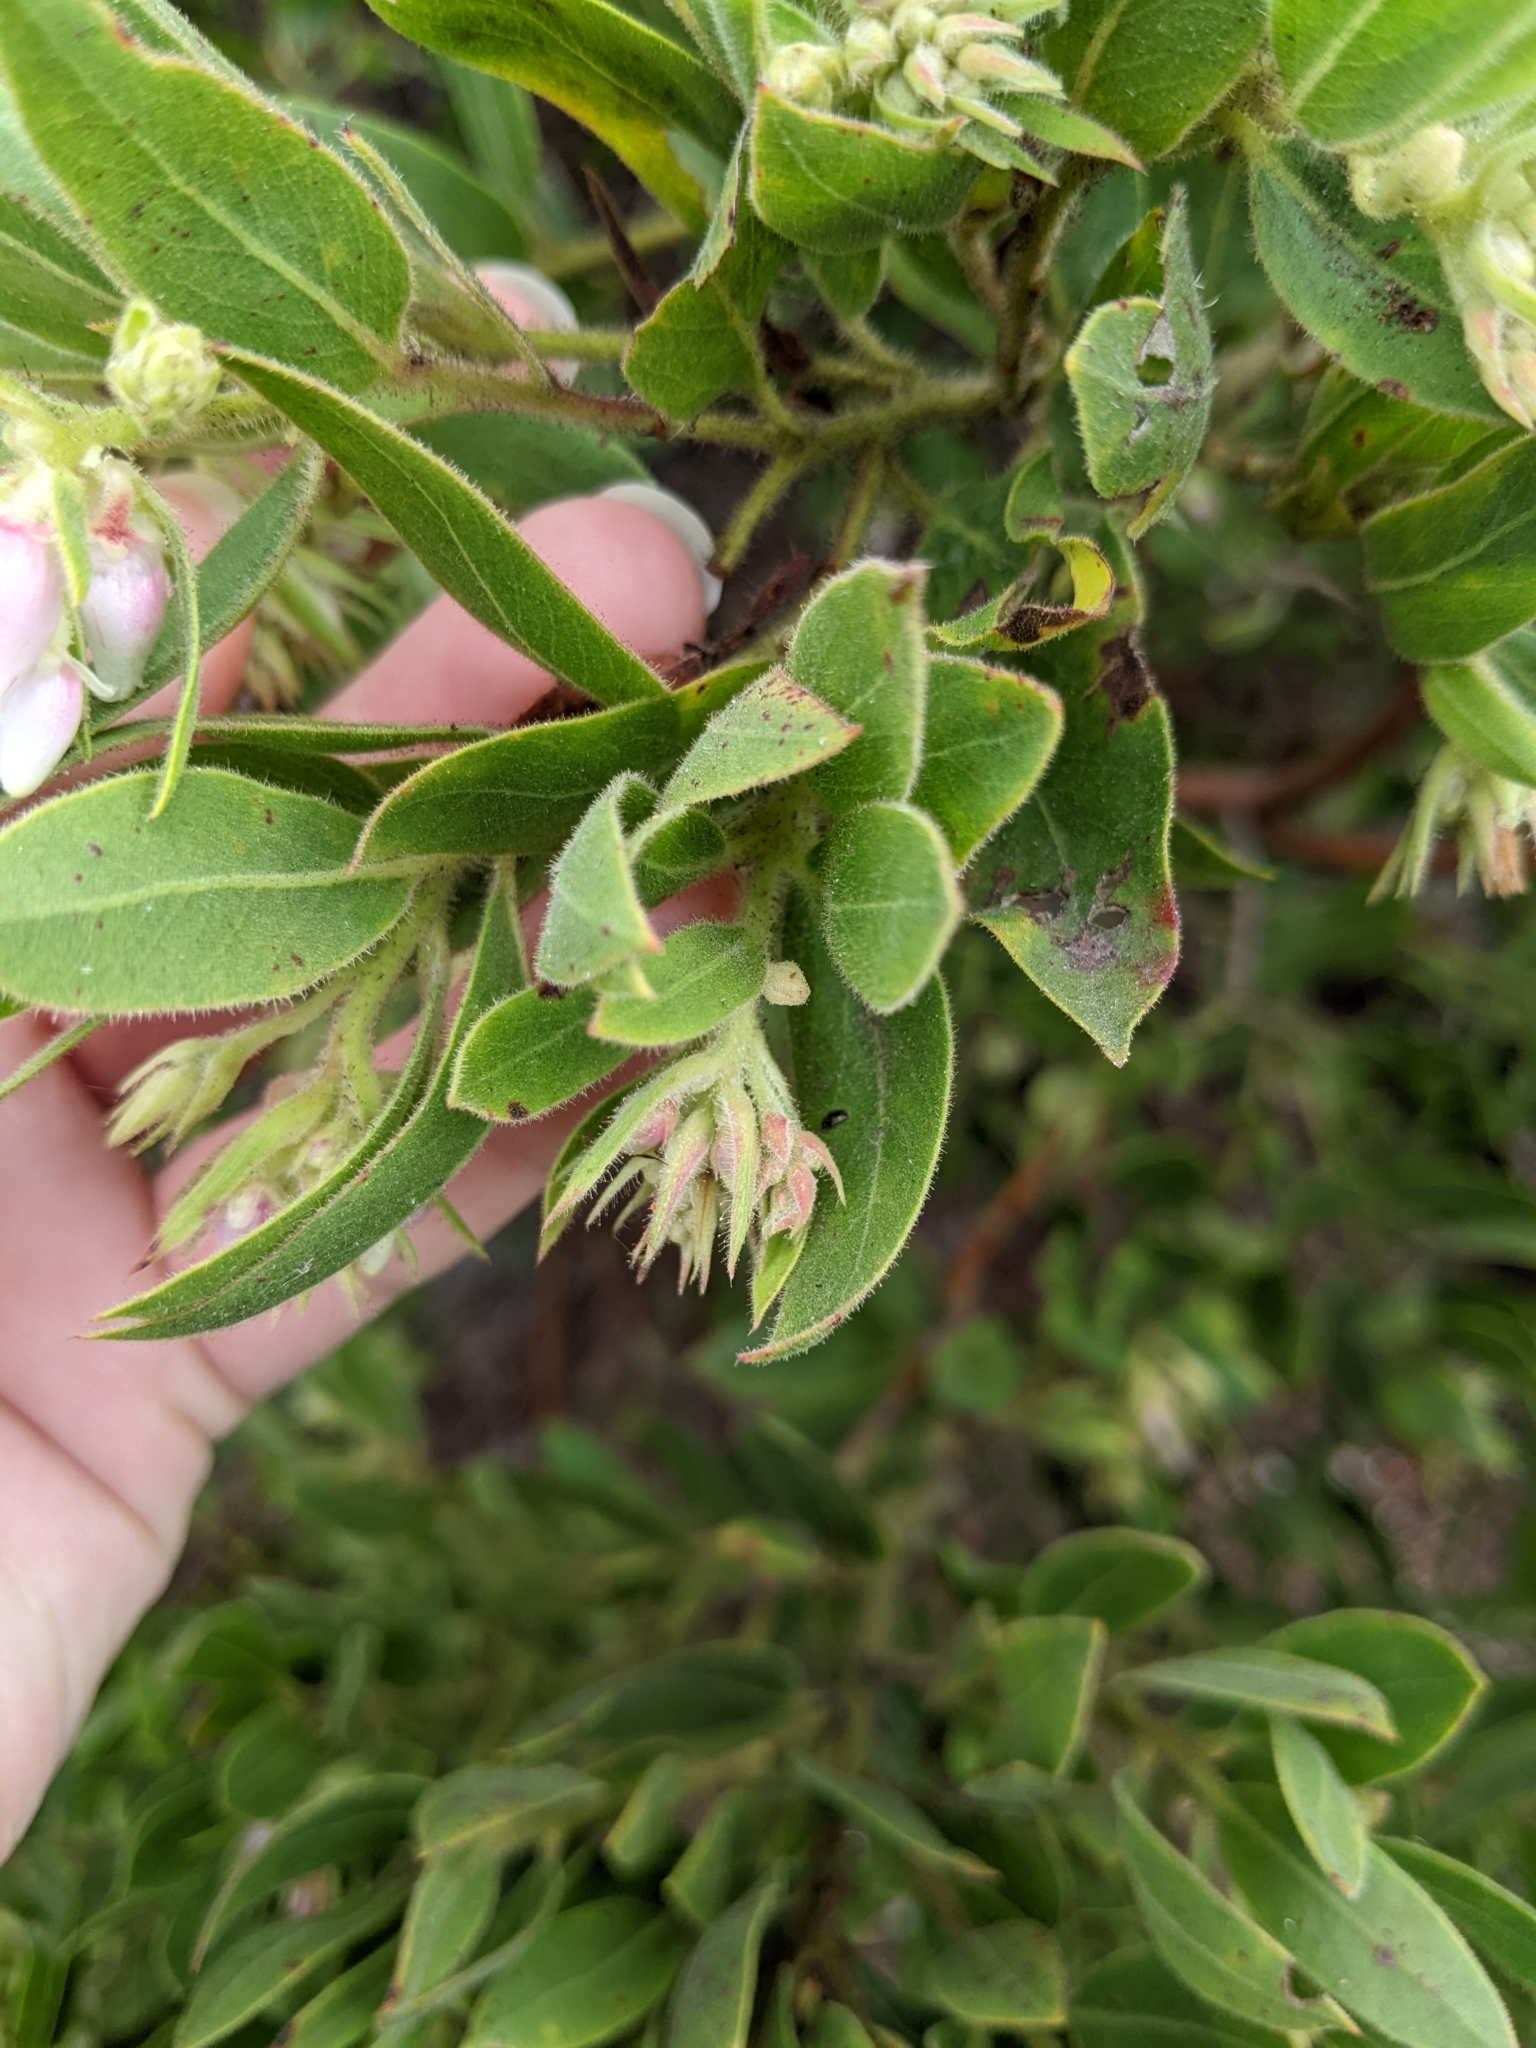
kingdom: Plantae
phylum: Tracheophyta
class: Magnoliopsida
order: Ericales
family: Ericaceae
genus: Arctostaphylos
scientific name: Arctostaphylos virgata
